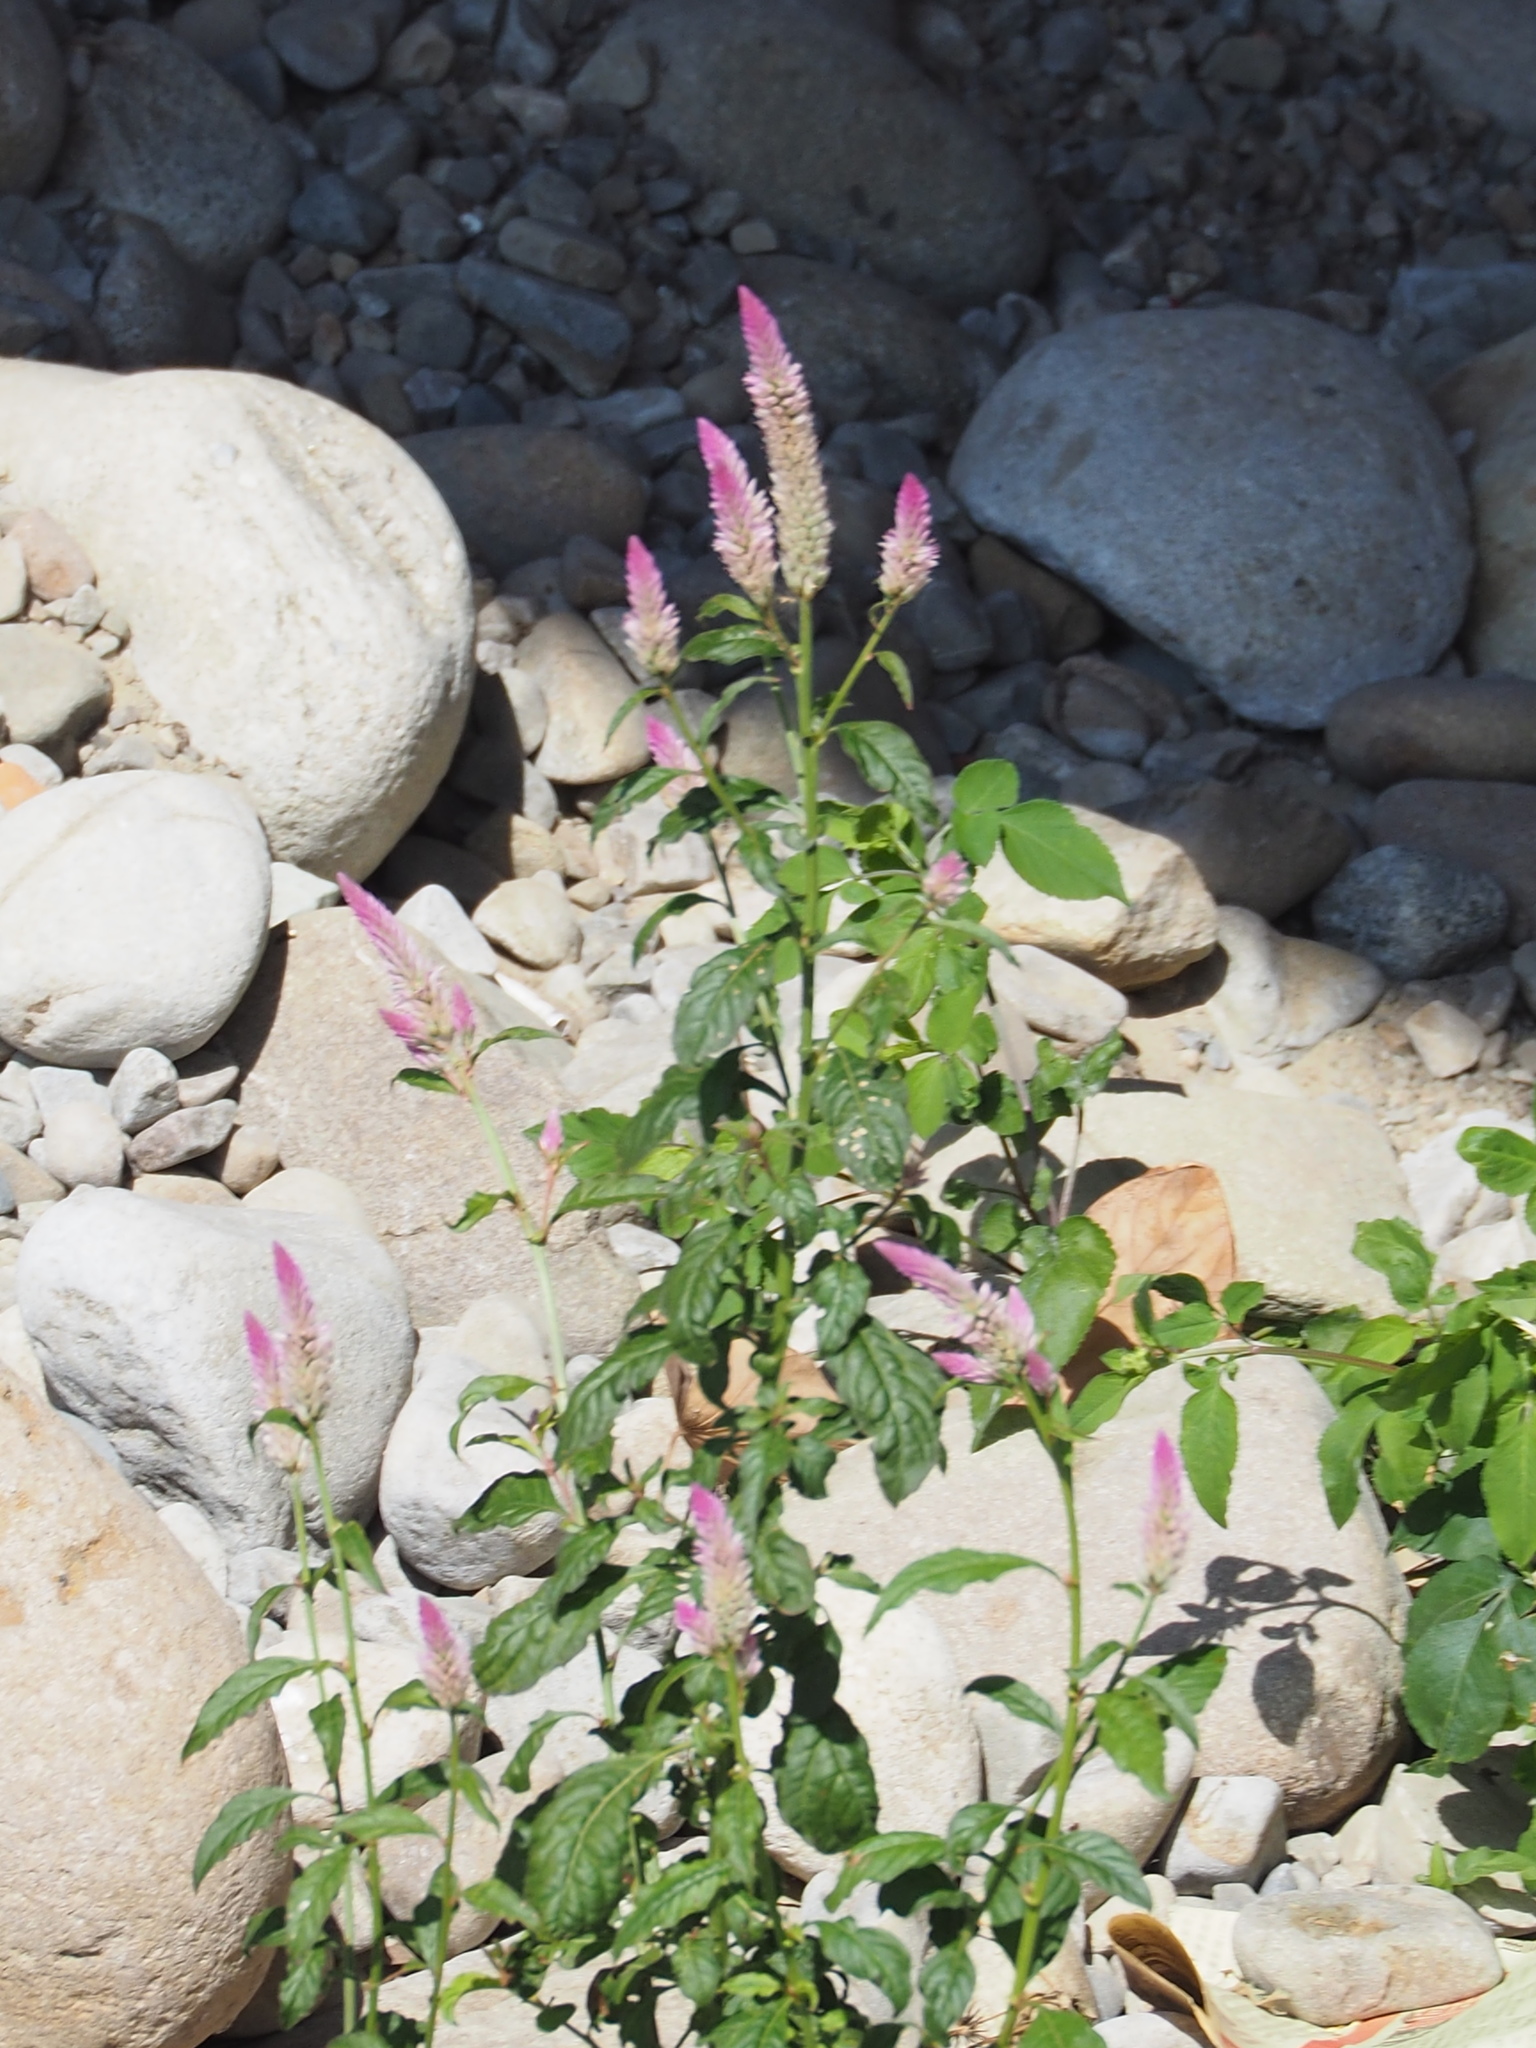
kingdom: Plantae
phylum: Tracheophyta
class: Magnoliopsida
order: Caryophyllales
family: Amaranthaceae
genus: Celosia
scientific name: Celosia argentea
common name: Feather cockscomb
